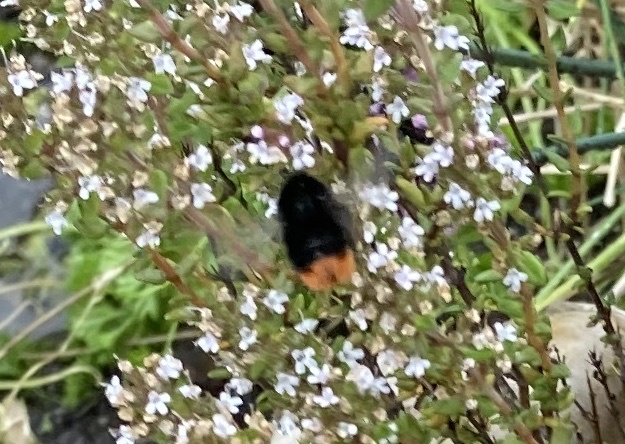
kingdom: Animalia
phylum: Arthropoda
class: Insecta
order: Hymenoptera
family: Apidae
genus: Bombus
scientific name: Bombus lapidarius
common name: Large red-tailed humble-bee
